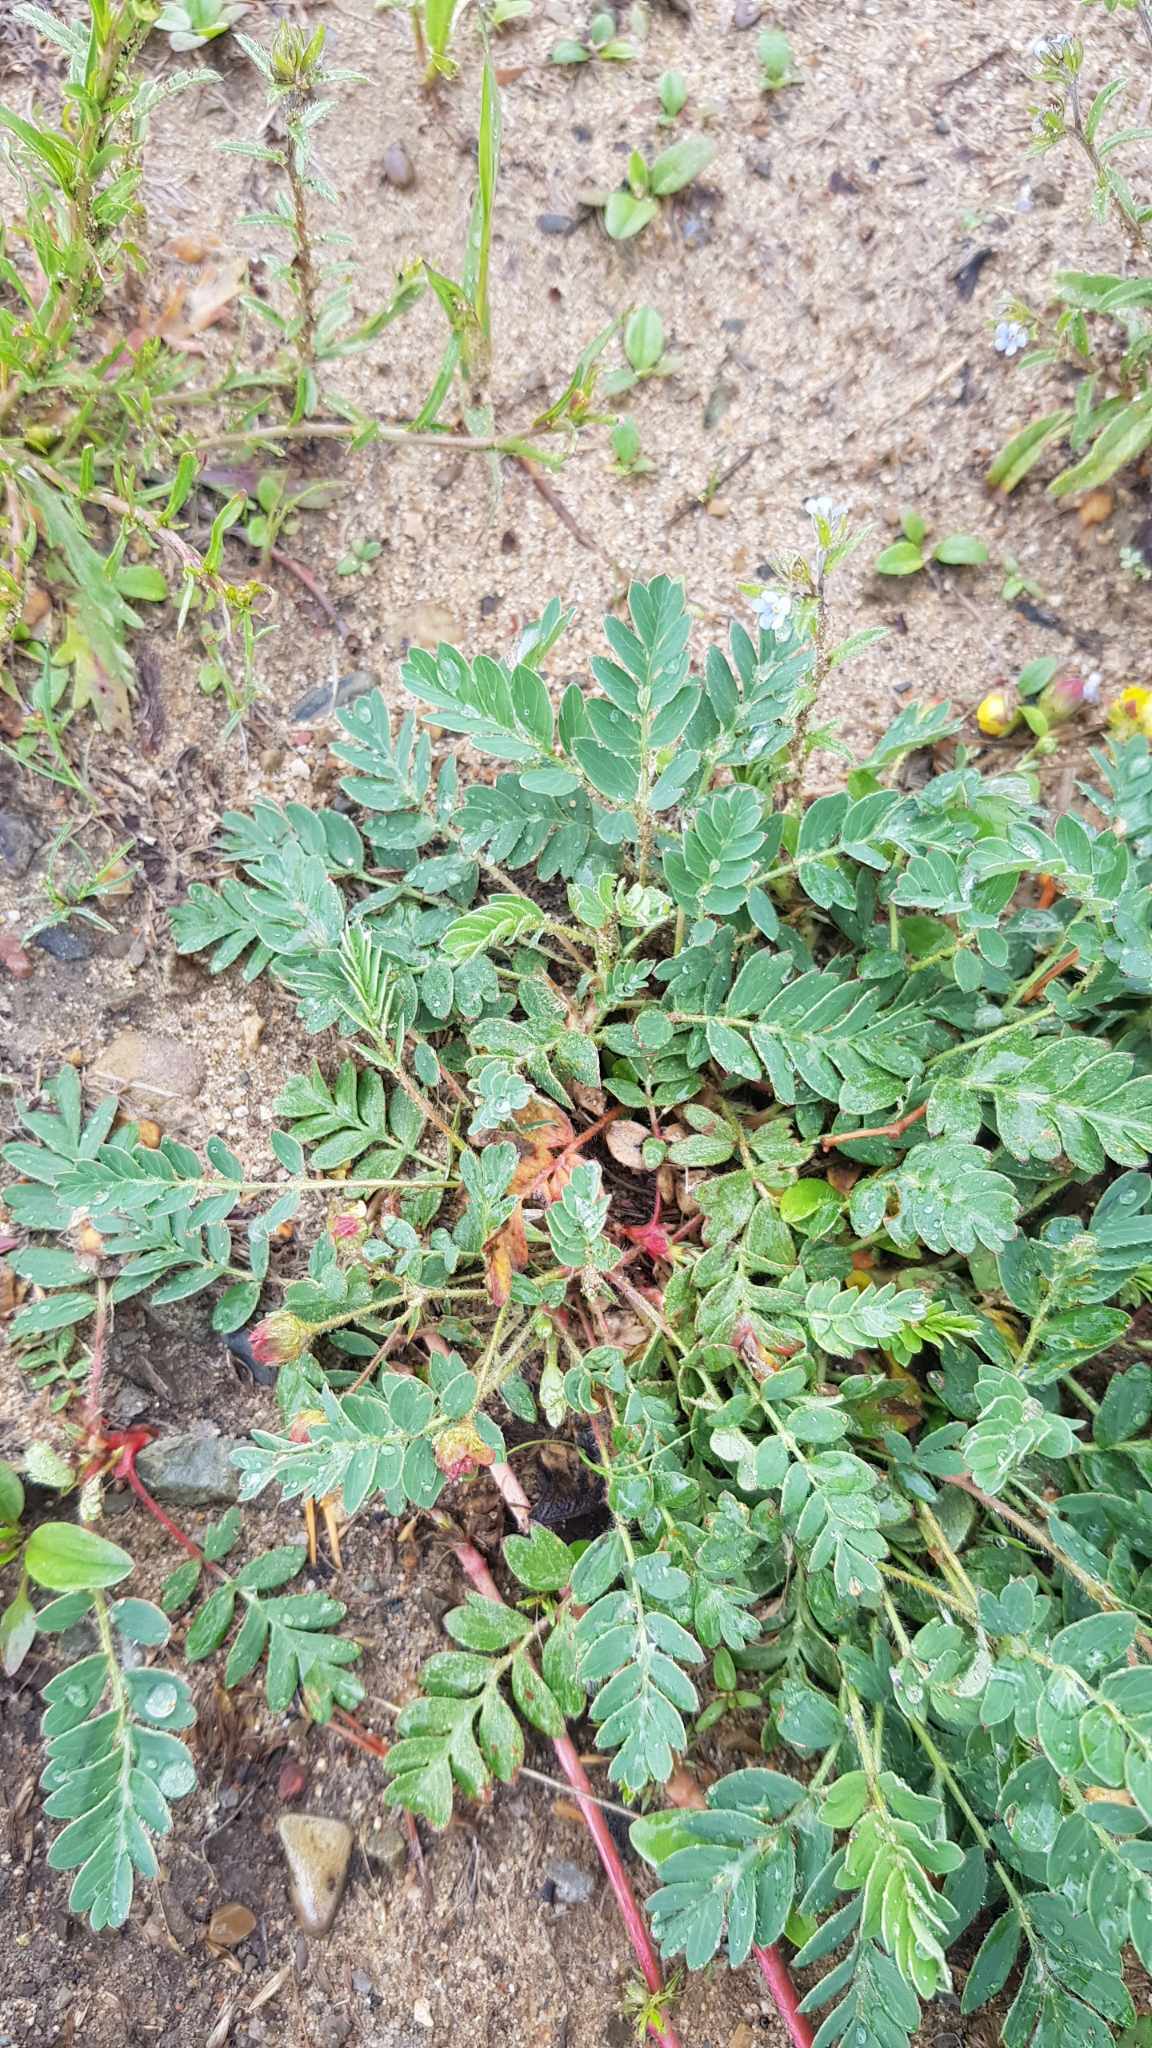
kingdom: Plantae
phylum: Tracheophyta
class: Magnoliopsida
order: Rosales
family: Rosaceae
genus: Sibbaldianthe
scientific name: Sibbaldianthe bifurca
